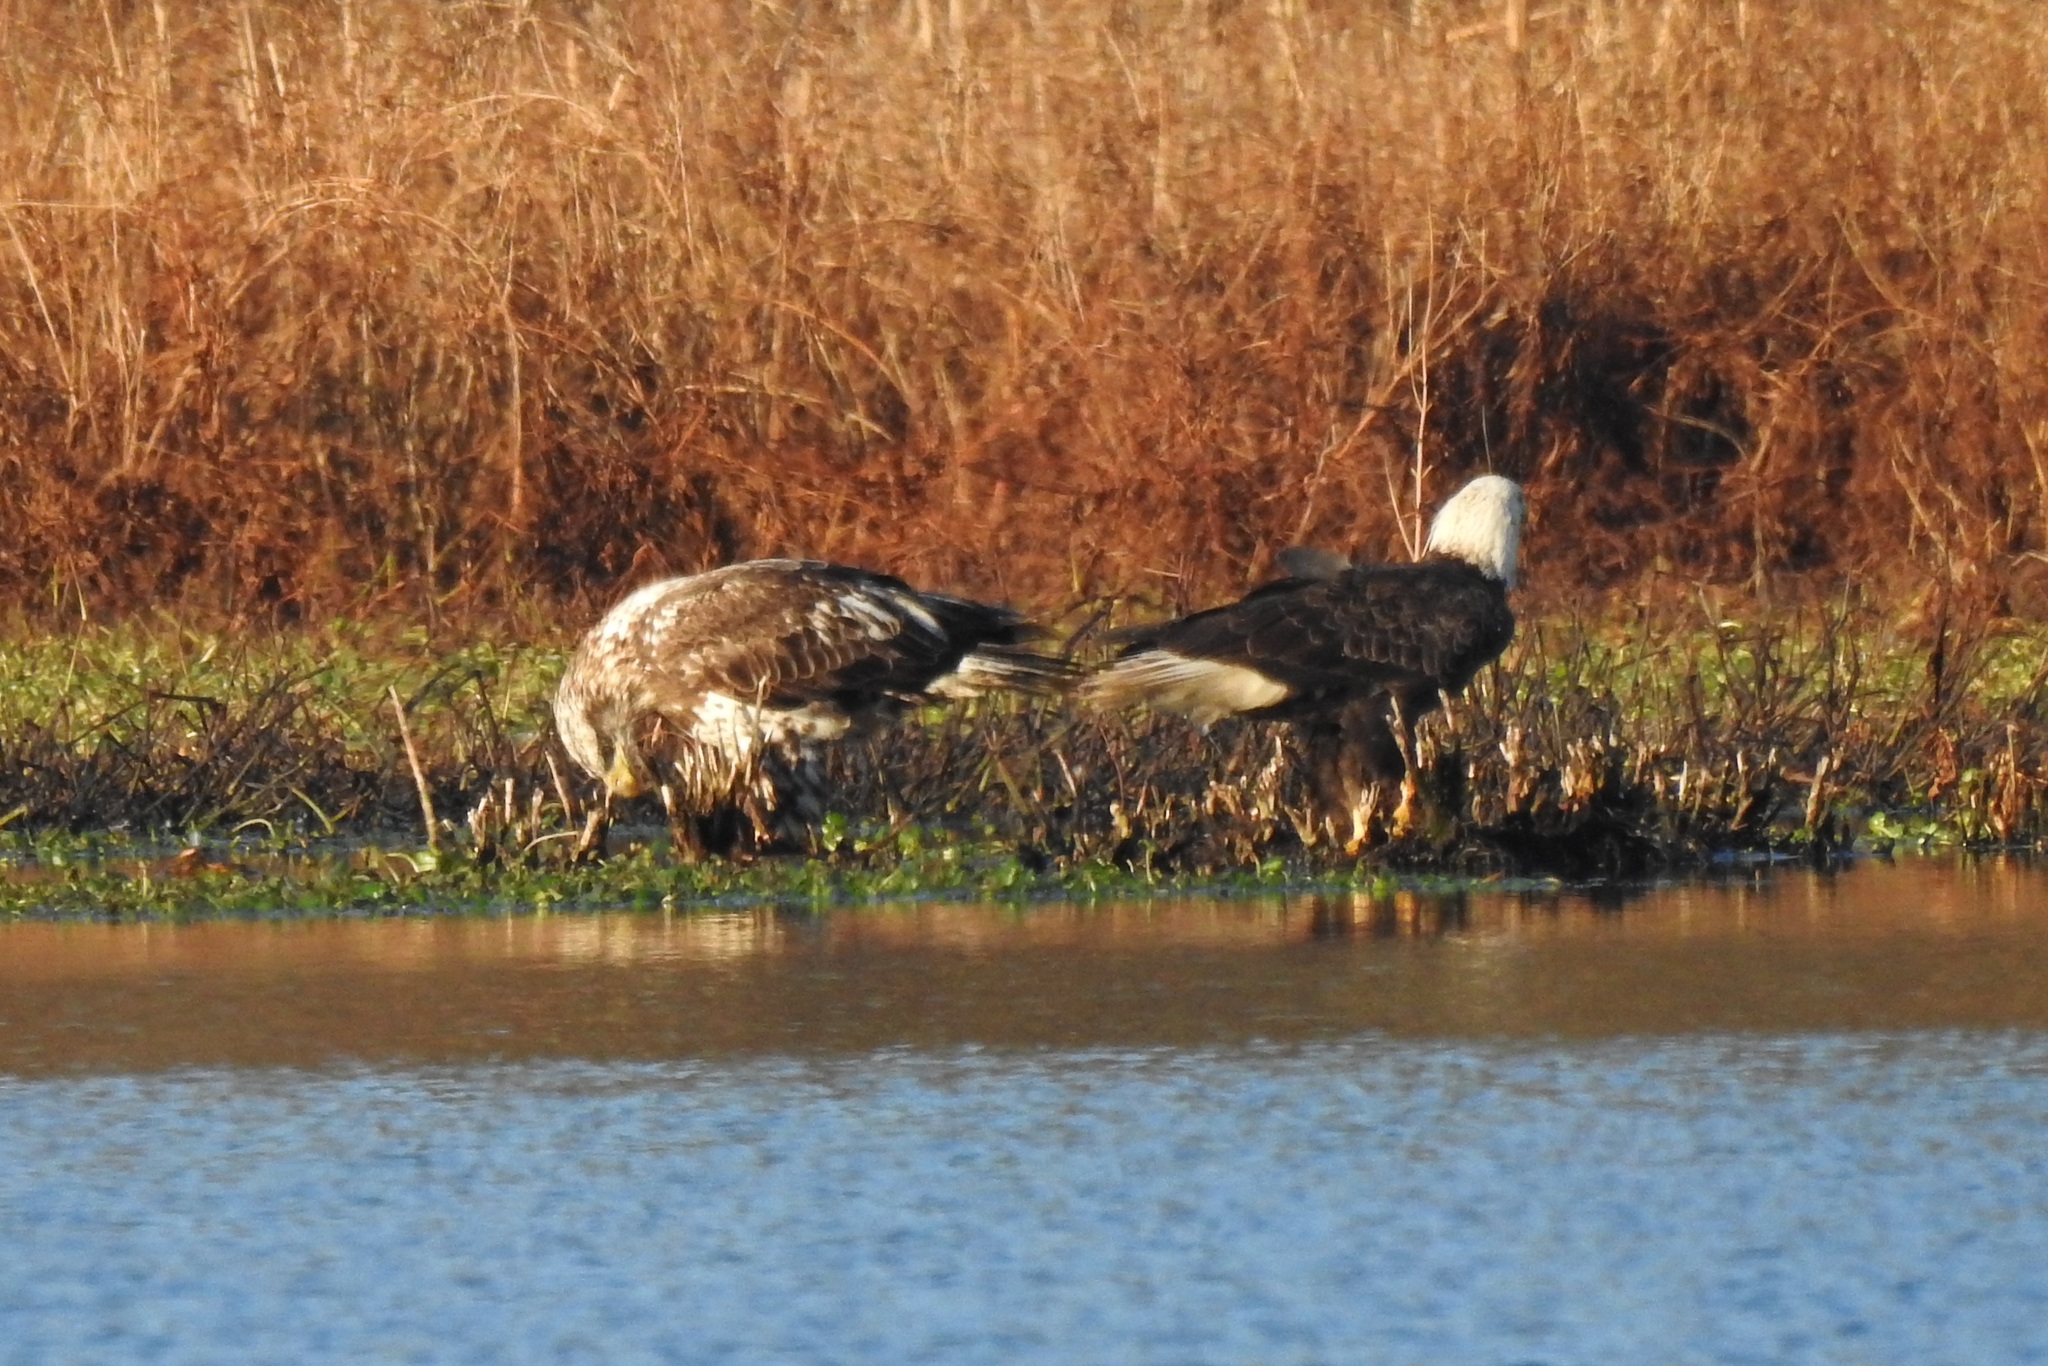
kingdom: Animalia
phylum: Chordata
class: Aves
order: Accipitriformes
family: Accipitridae
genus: Haliaeetus
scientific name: Haliaeetus leucocephalus
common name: Bald eagle
